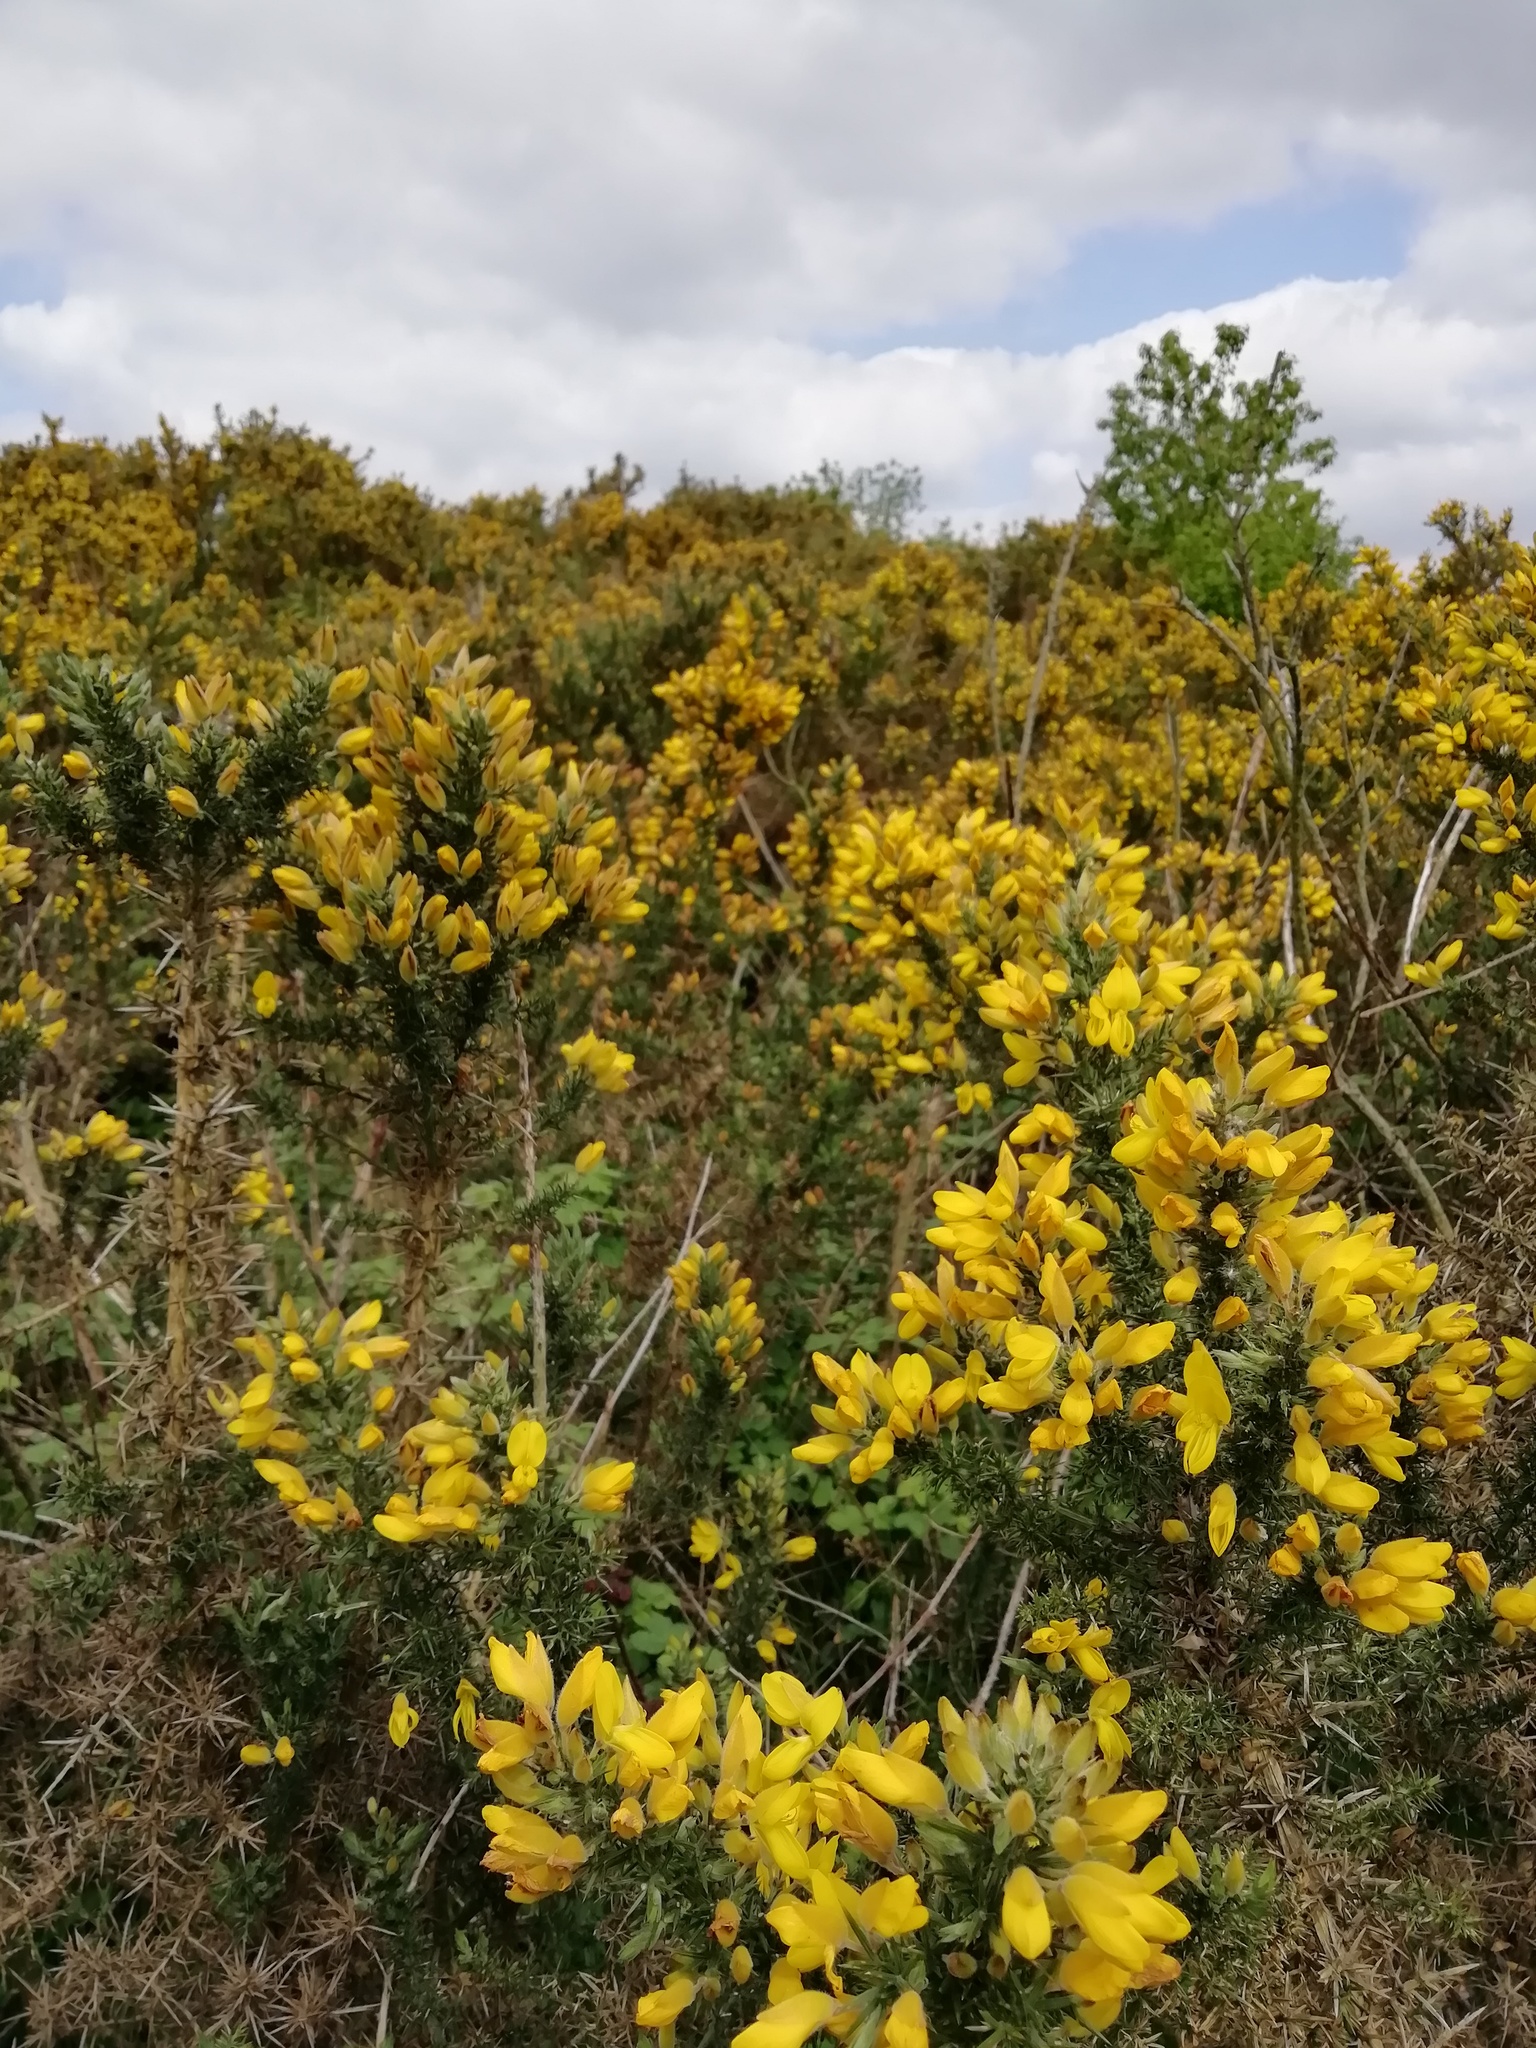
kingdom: Plantae
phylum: Tracheophyta
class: Magnoliopsida
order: Fabales
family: Fabaceae
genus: Ulex
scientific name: Ulex europaeus
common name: Common gorse
